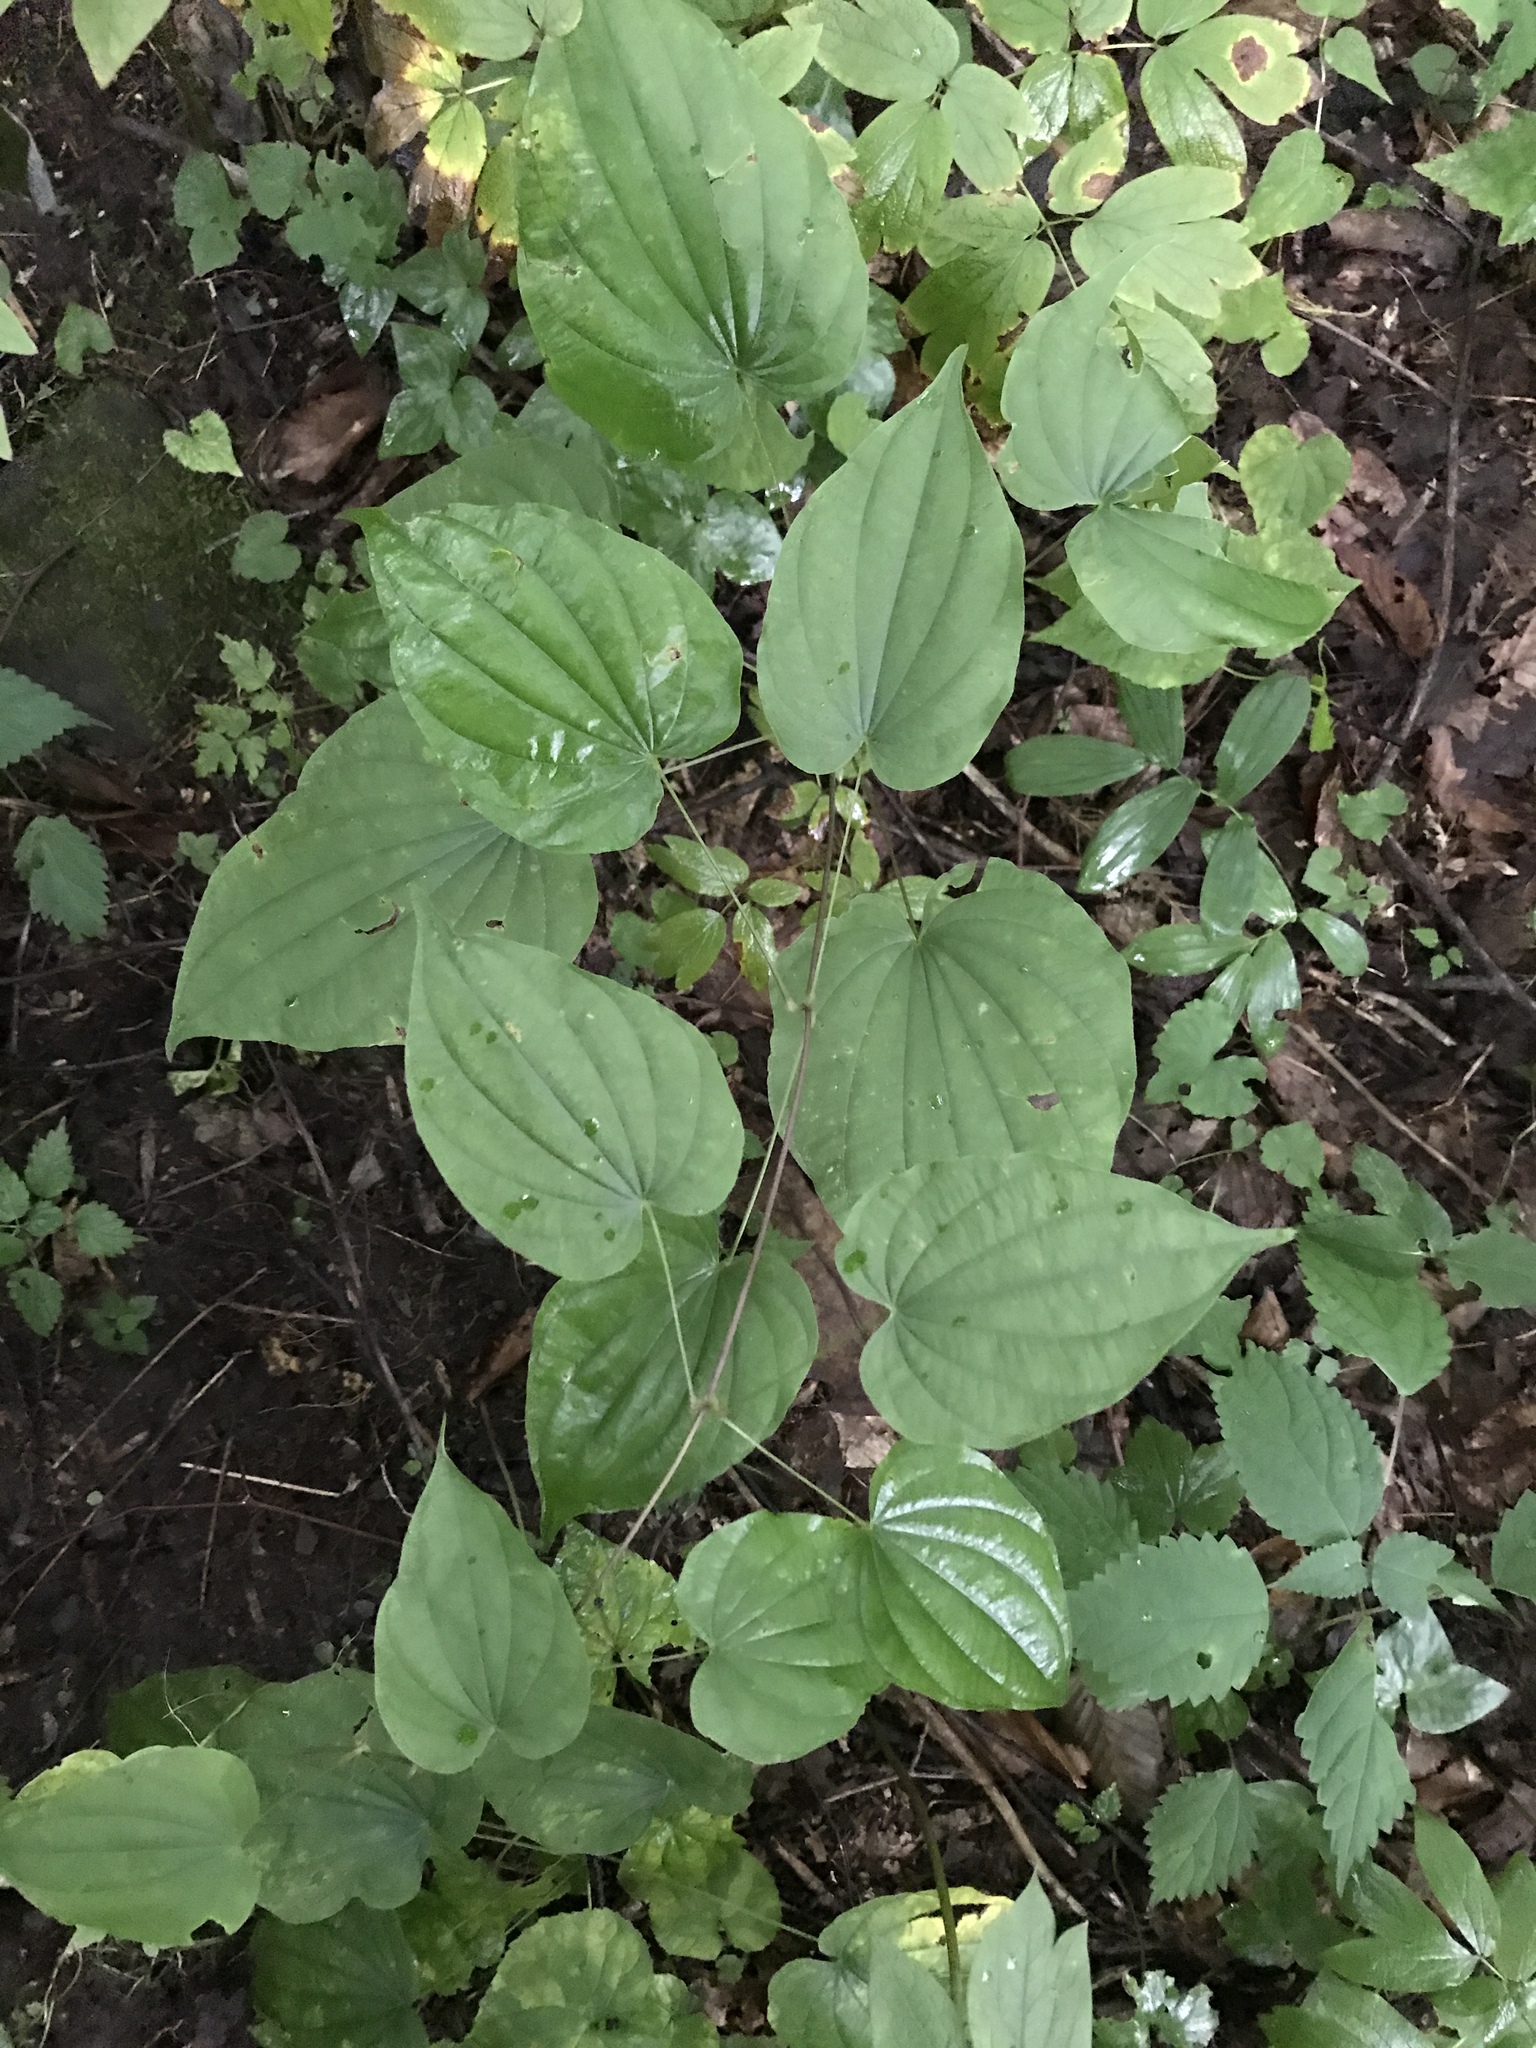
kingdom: Plantae
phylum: Tracheophyta
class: Liliopsida
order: Dioscoreales
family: Dioscoreaceae
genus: Dioscorea
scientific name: Dioscorea villosa
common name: Wild yam
